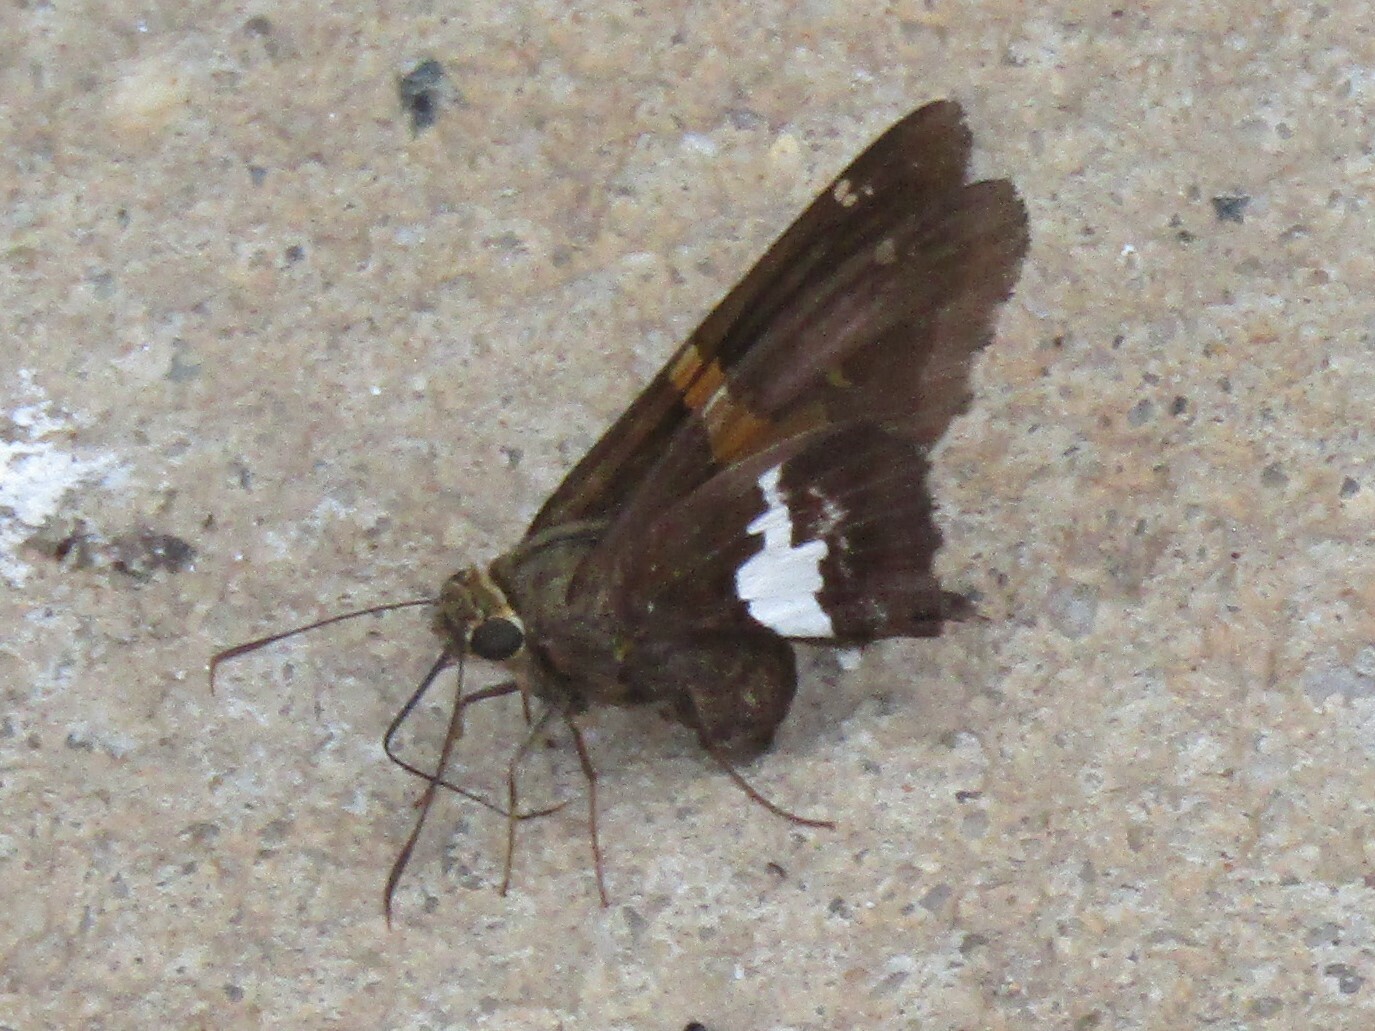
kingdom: Animalia
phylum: Arthropoda
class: Insecta
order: Lepidoptera
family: Hesperiidae
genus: Epargyreus
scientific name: Epargyreus clarus
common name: Silver-spotted skipper
